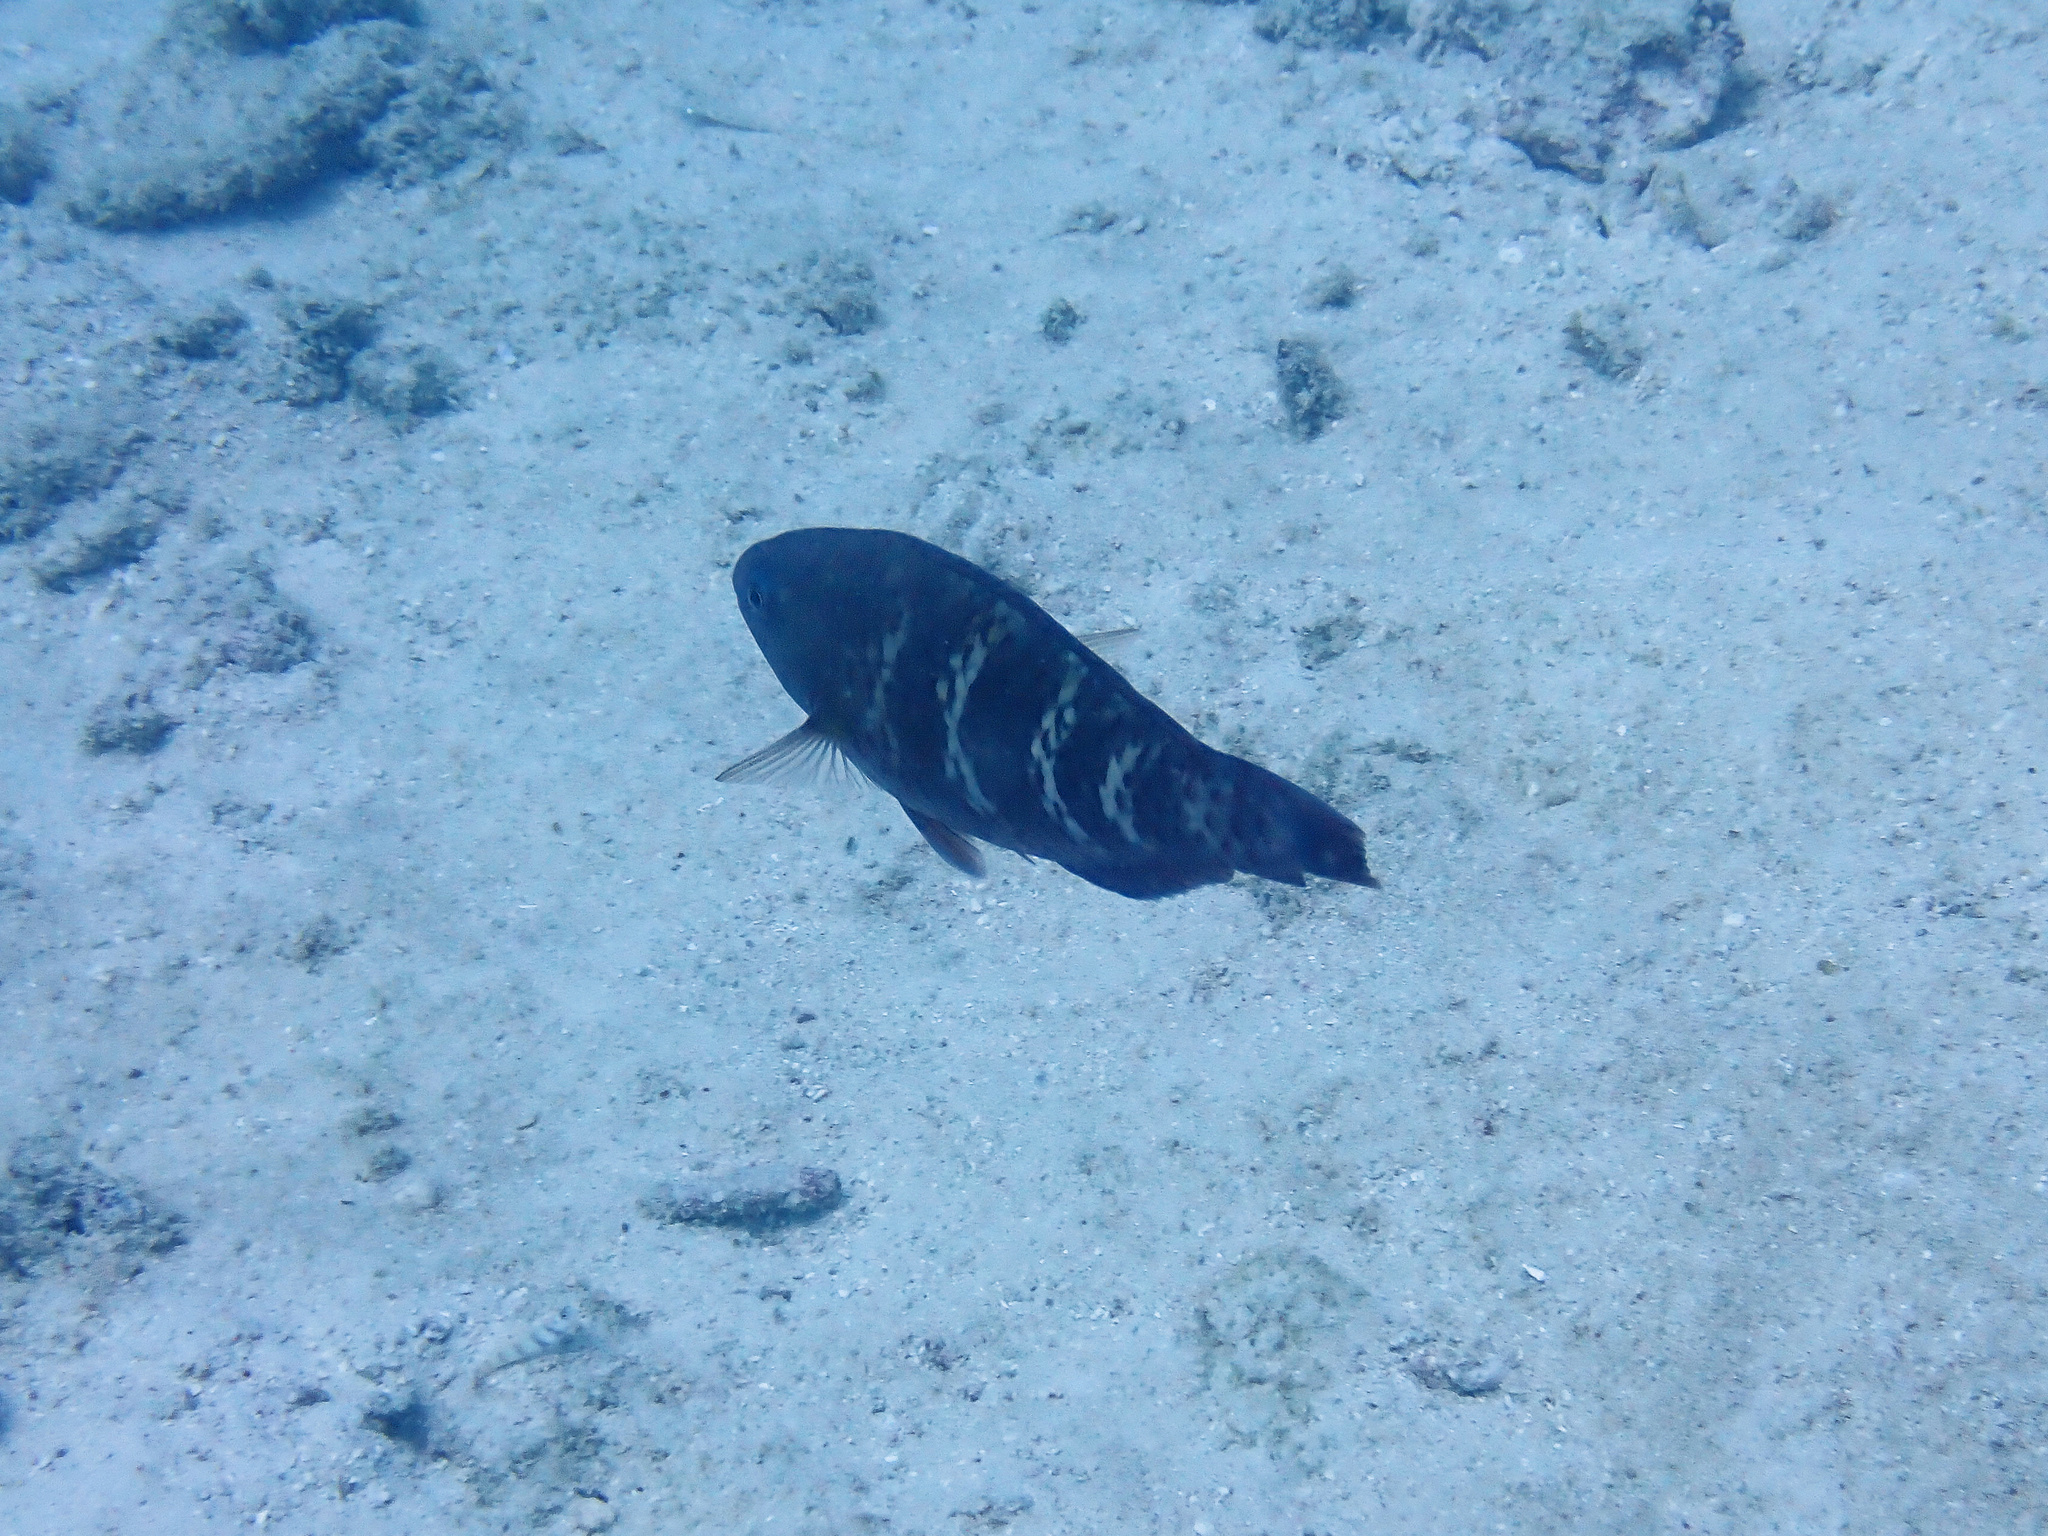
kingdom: Animalia
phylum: Chordata
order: Perciformes
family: Scaridae
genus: Scarus
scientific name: Scarus schlegeli
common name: Schlegel's parrotfish
